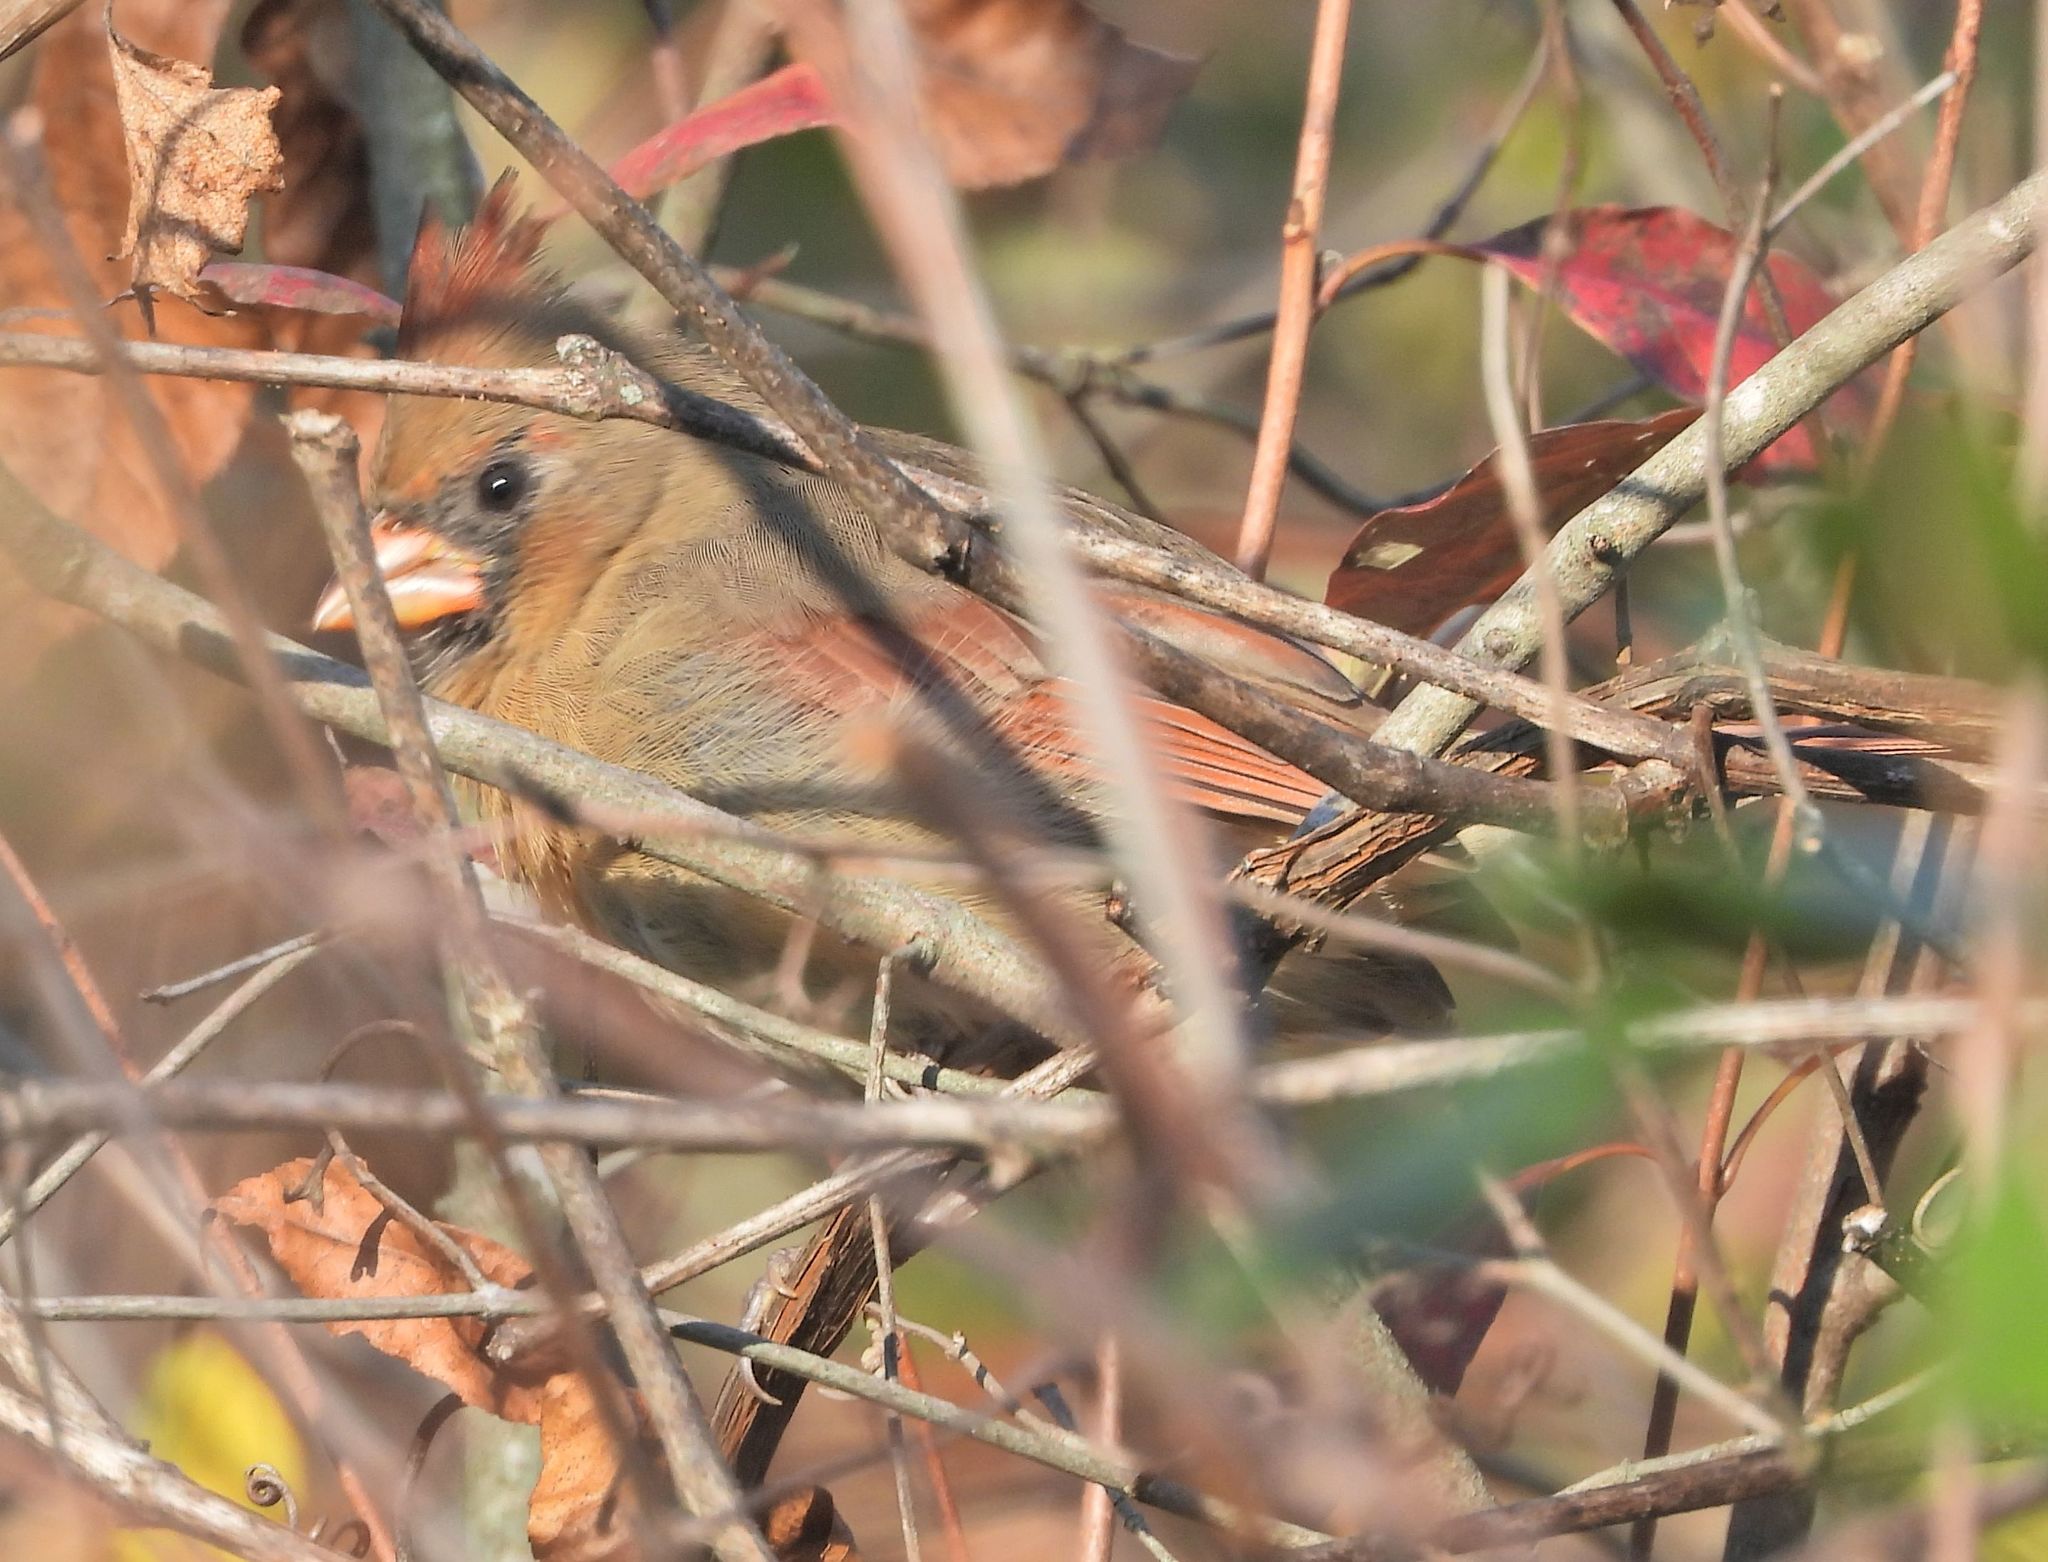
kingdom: Animalia
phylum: Chordata
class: Aves
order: Passeriformes
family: Cardinalidae
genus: Cardinalis
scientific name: Cardinalis cardinalis
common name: Northern cardinal
